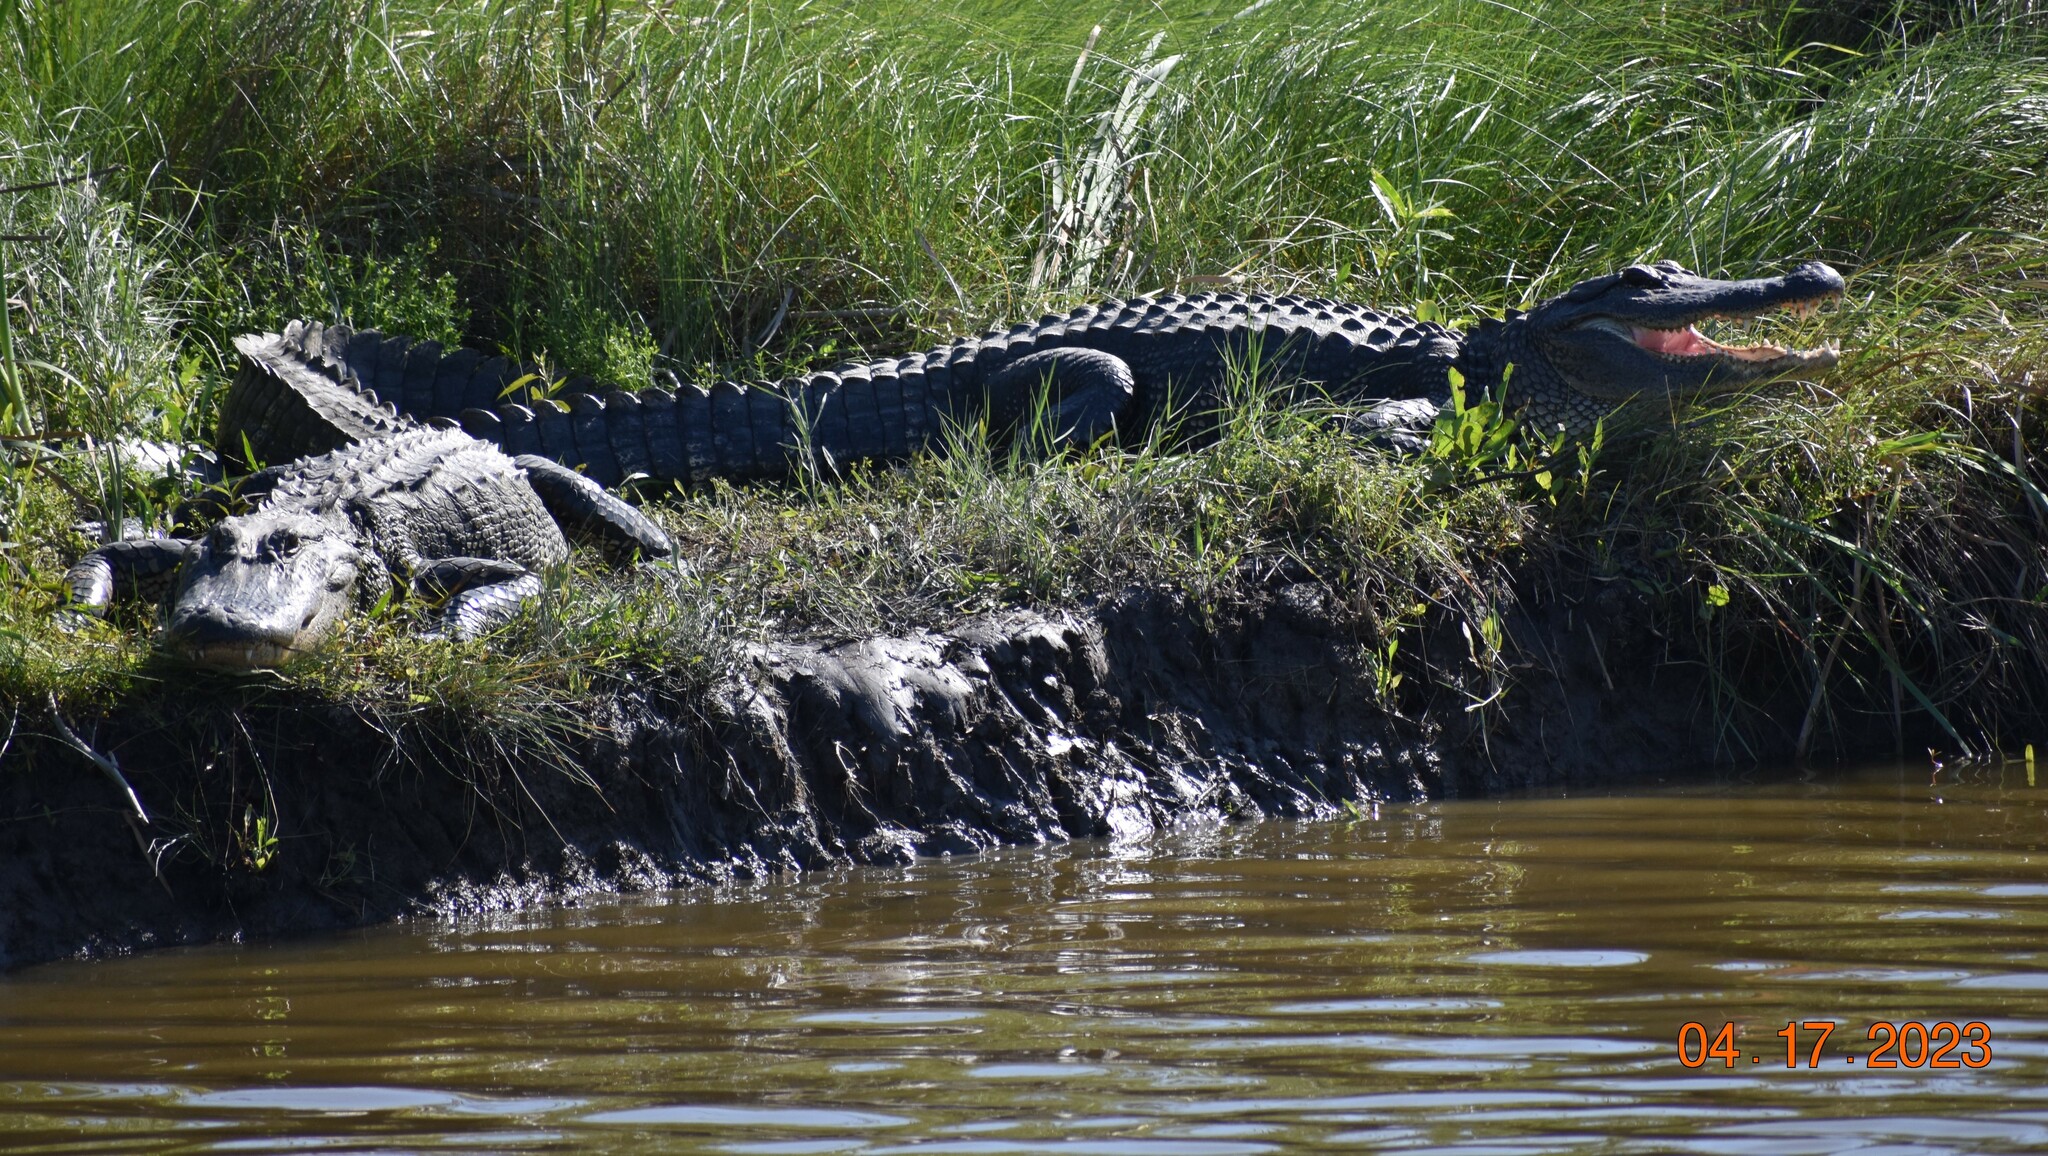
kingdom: Animalia
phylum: Chordata
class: Crocodylia
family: Alligatoridae
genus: Alligator
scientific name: Alligator mississippiensis
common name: American alligator
